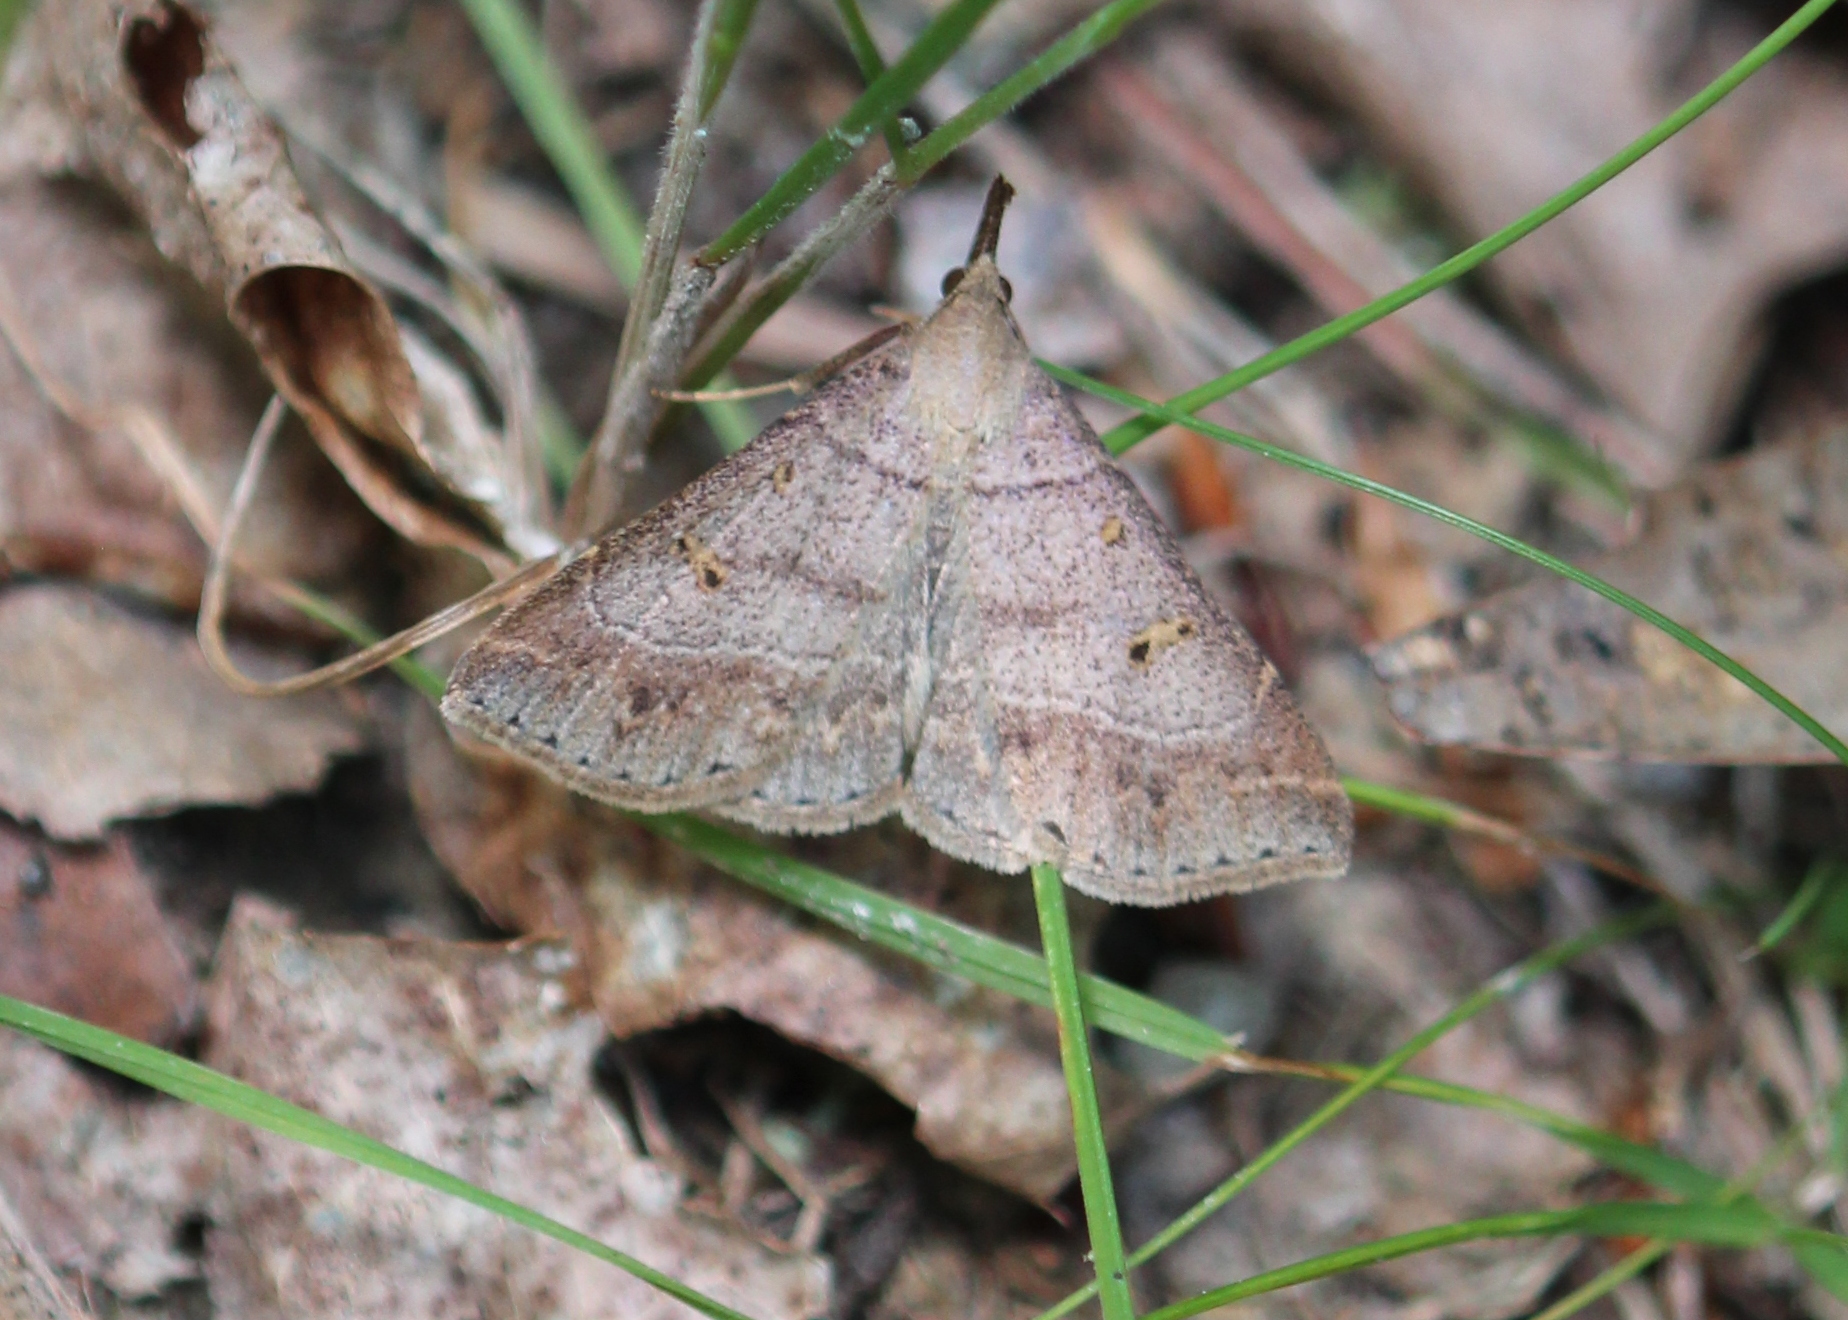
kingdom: Animalia
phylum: Arthropoda
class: Insecta
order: Lepidoptera
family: Erebidae
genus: Renia
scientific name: Renia flavipunctalis
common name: Yellow-spotted renia moth
